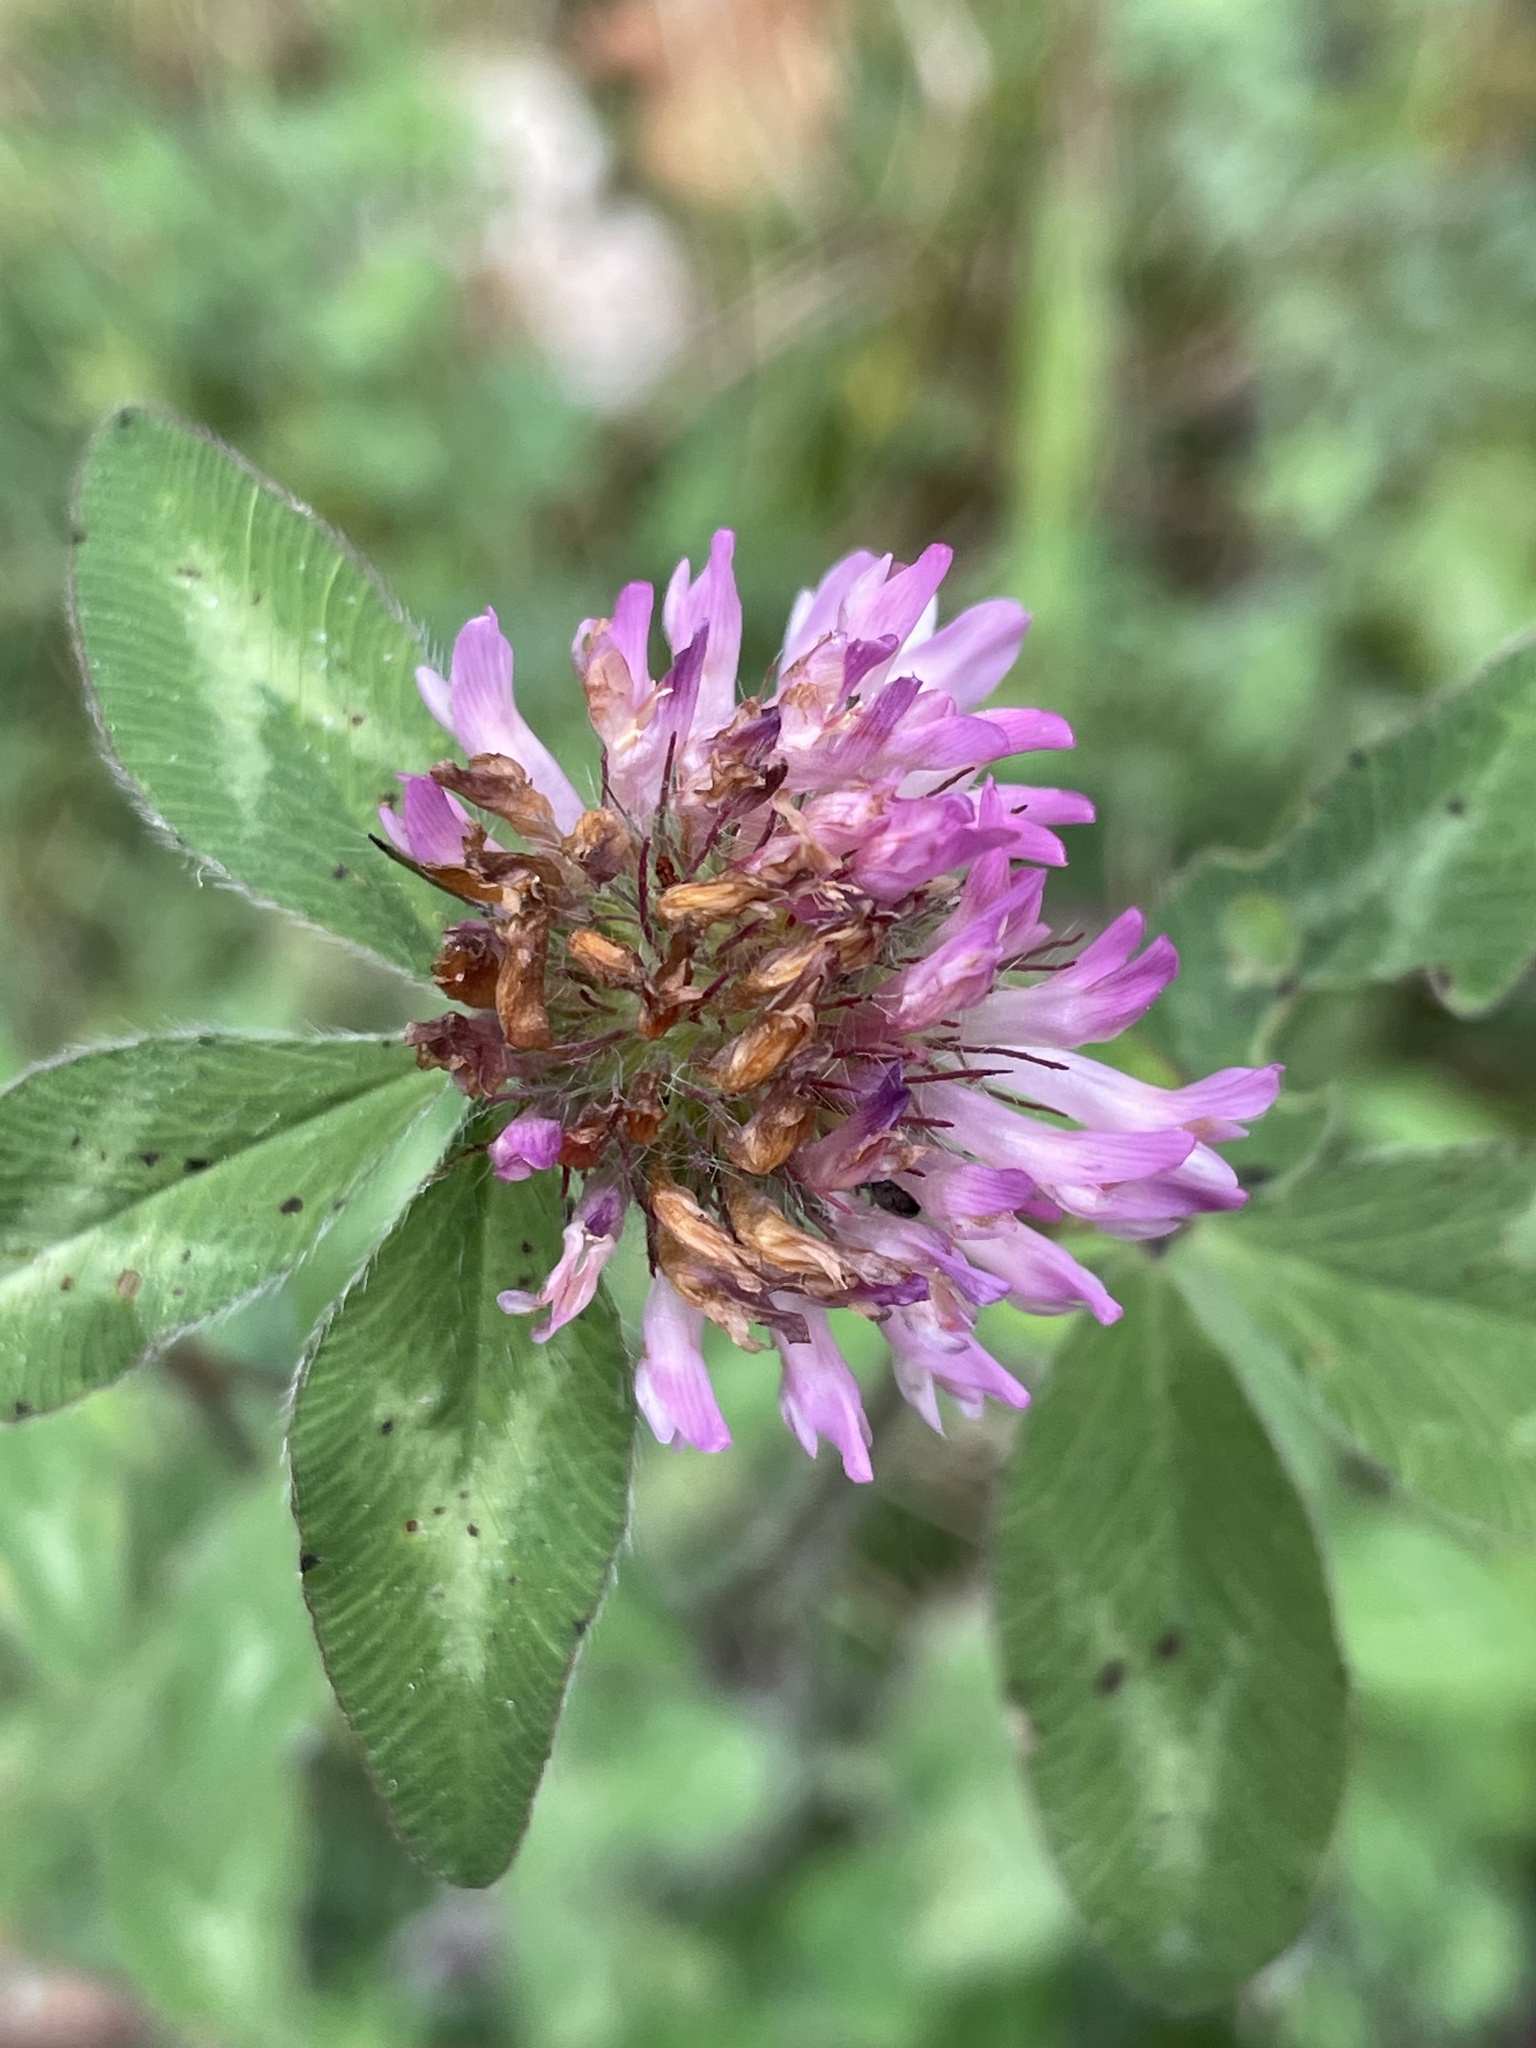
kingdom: Plantae
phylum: Tracheophyta
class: Magnoliopsida
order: Fabales
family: Fabaceae
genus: Trifolium
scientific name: Trifolium pratense
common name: Red clover
